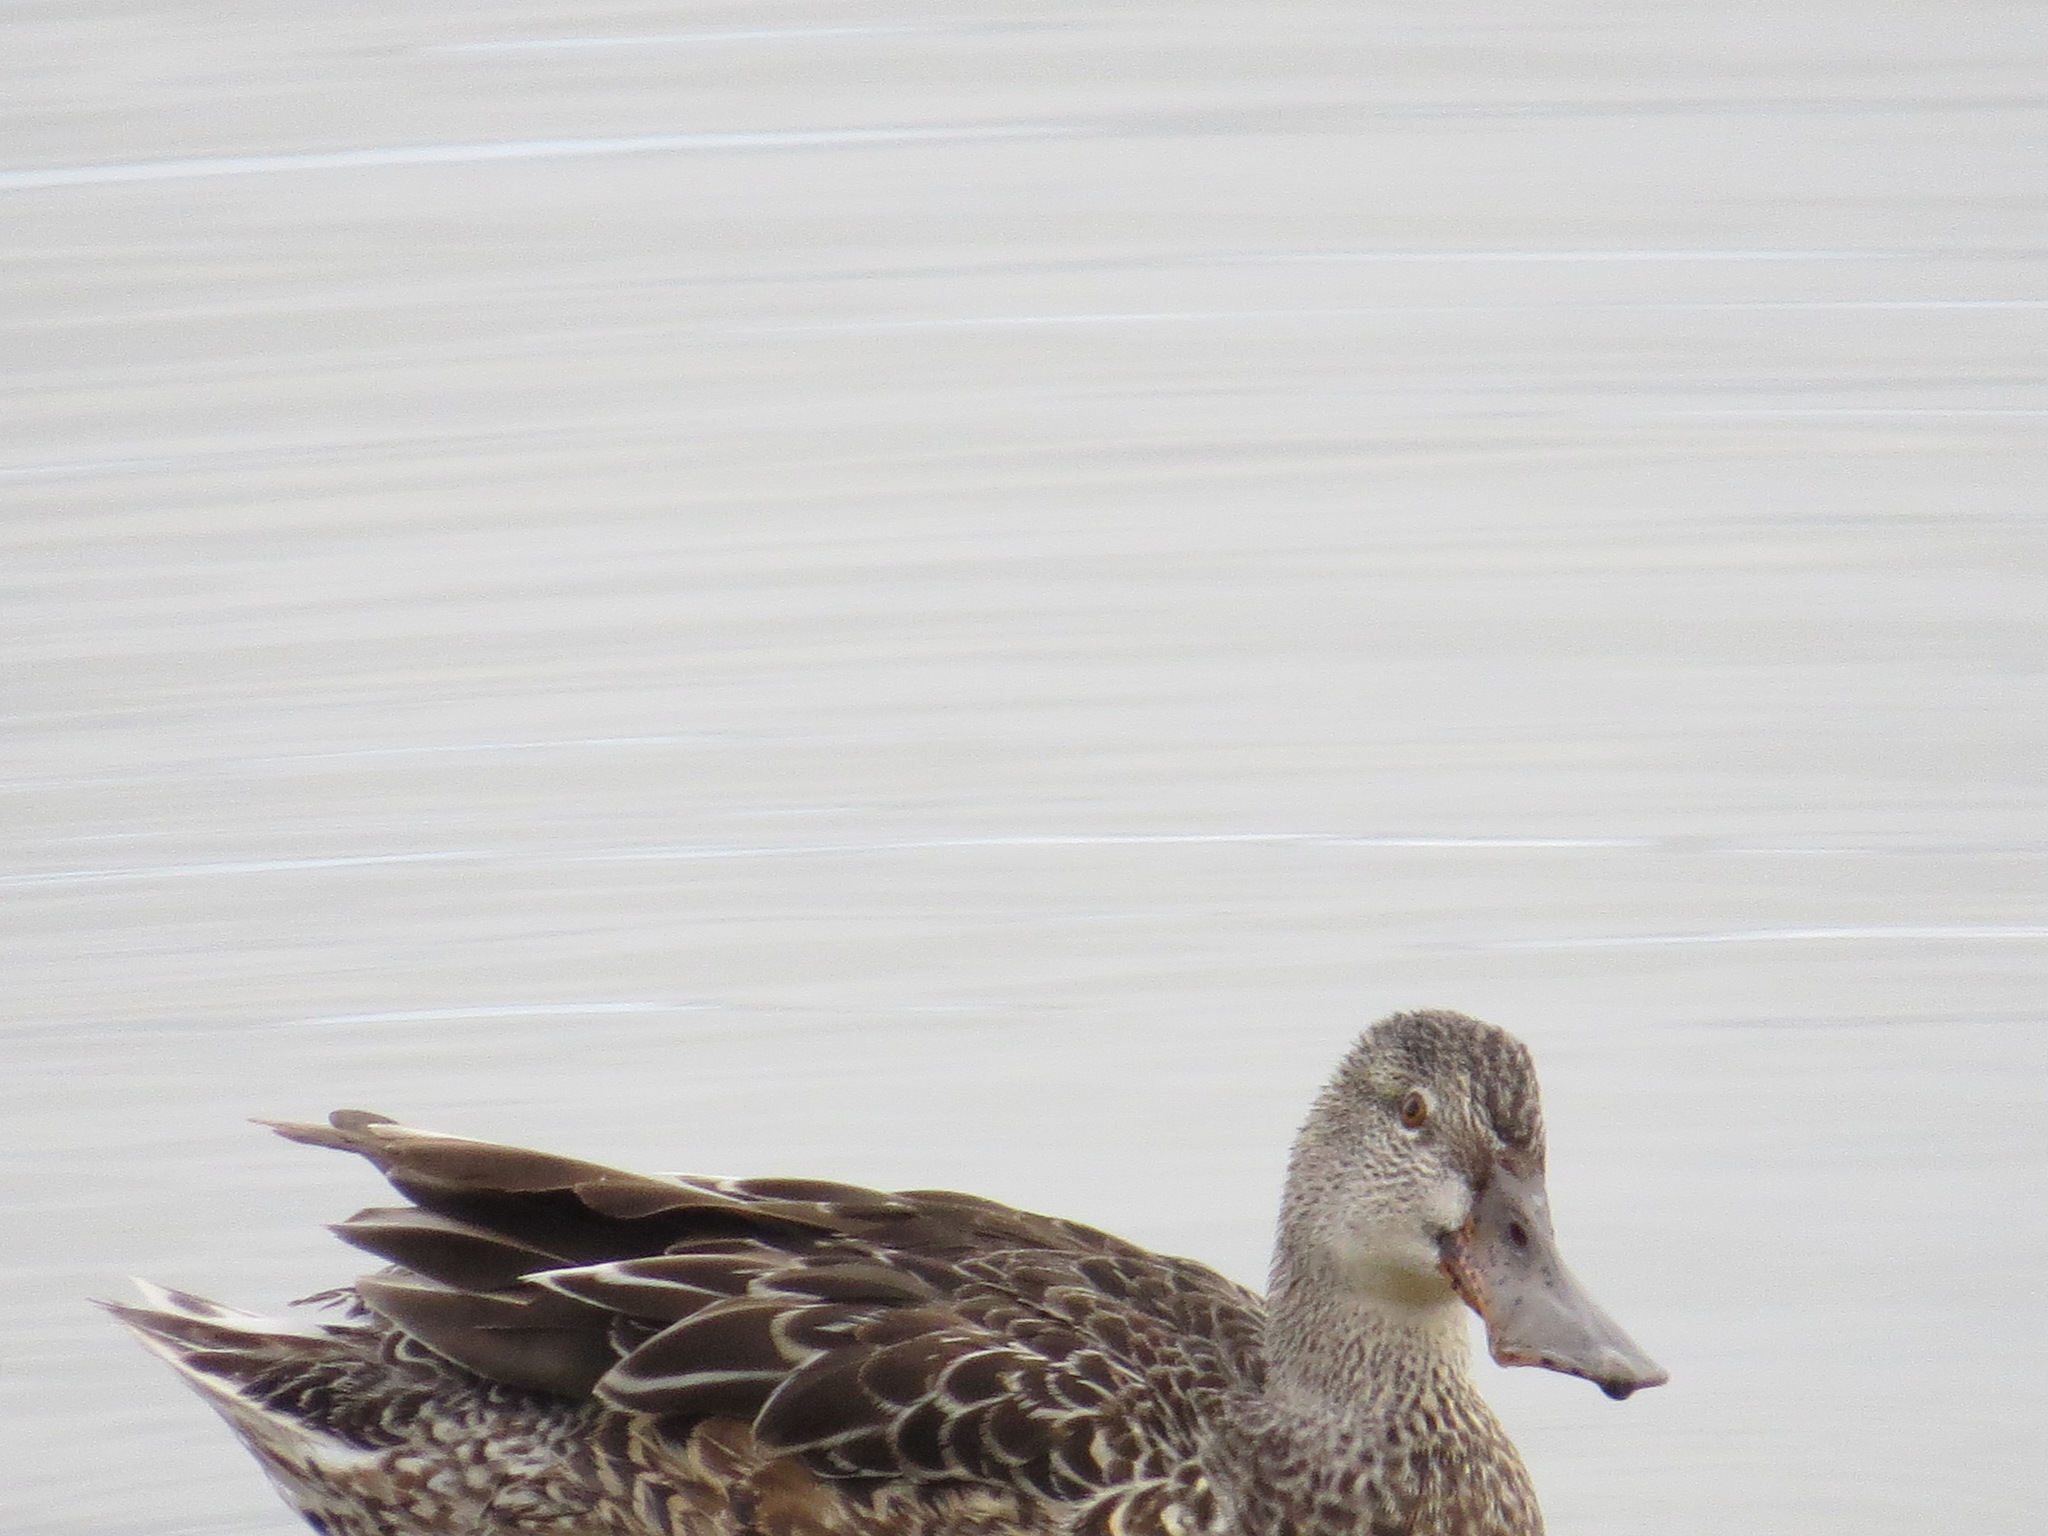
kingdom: Animalia
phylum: Chordata
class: Aves
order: Anseriformes
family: Anatidae
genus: Spatula
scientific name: Spatula clypeata
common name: Northern shoveler
